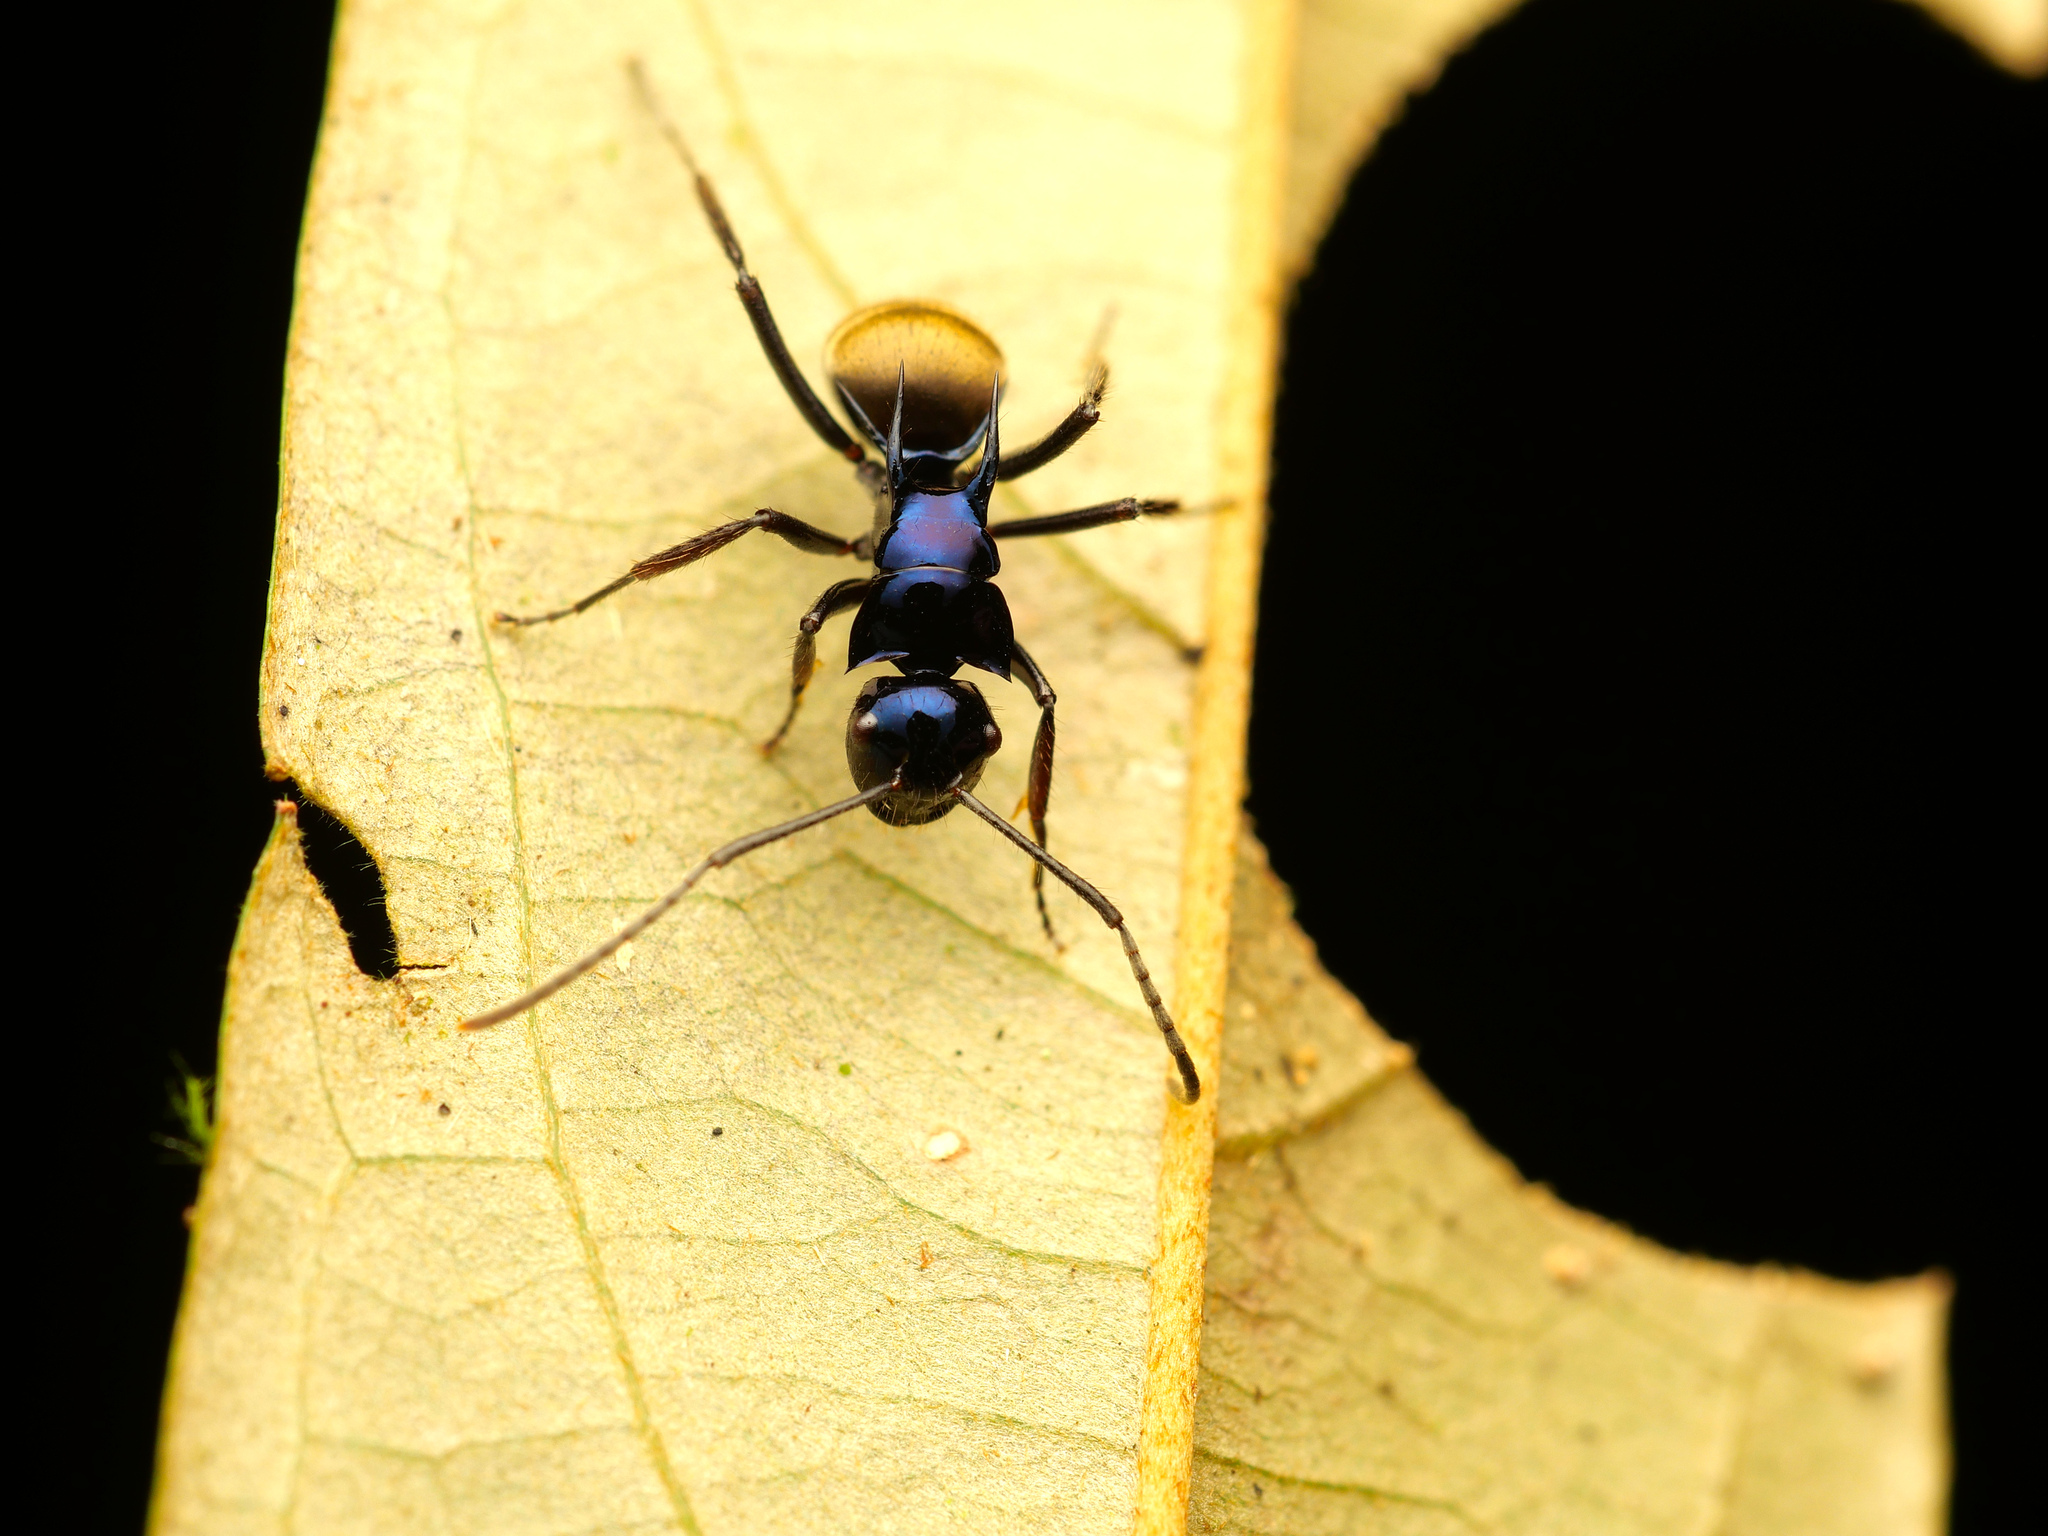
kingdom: Animalia
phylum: Arthropoda
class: Insecta
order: Hymenoptera
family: Formicidae
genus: Polyrhachis
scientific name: Polyrhachis loriai
